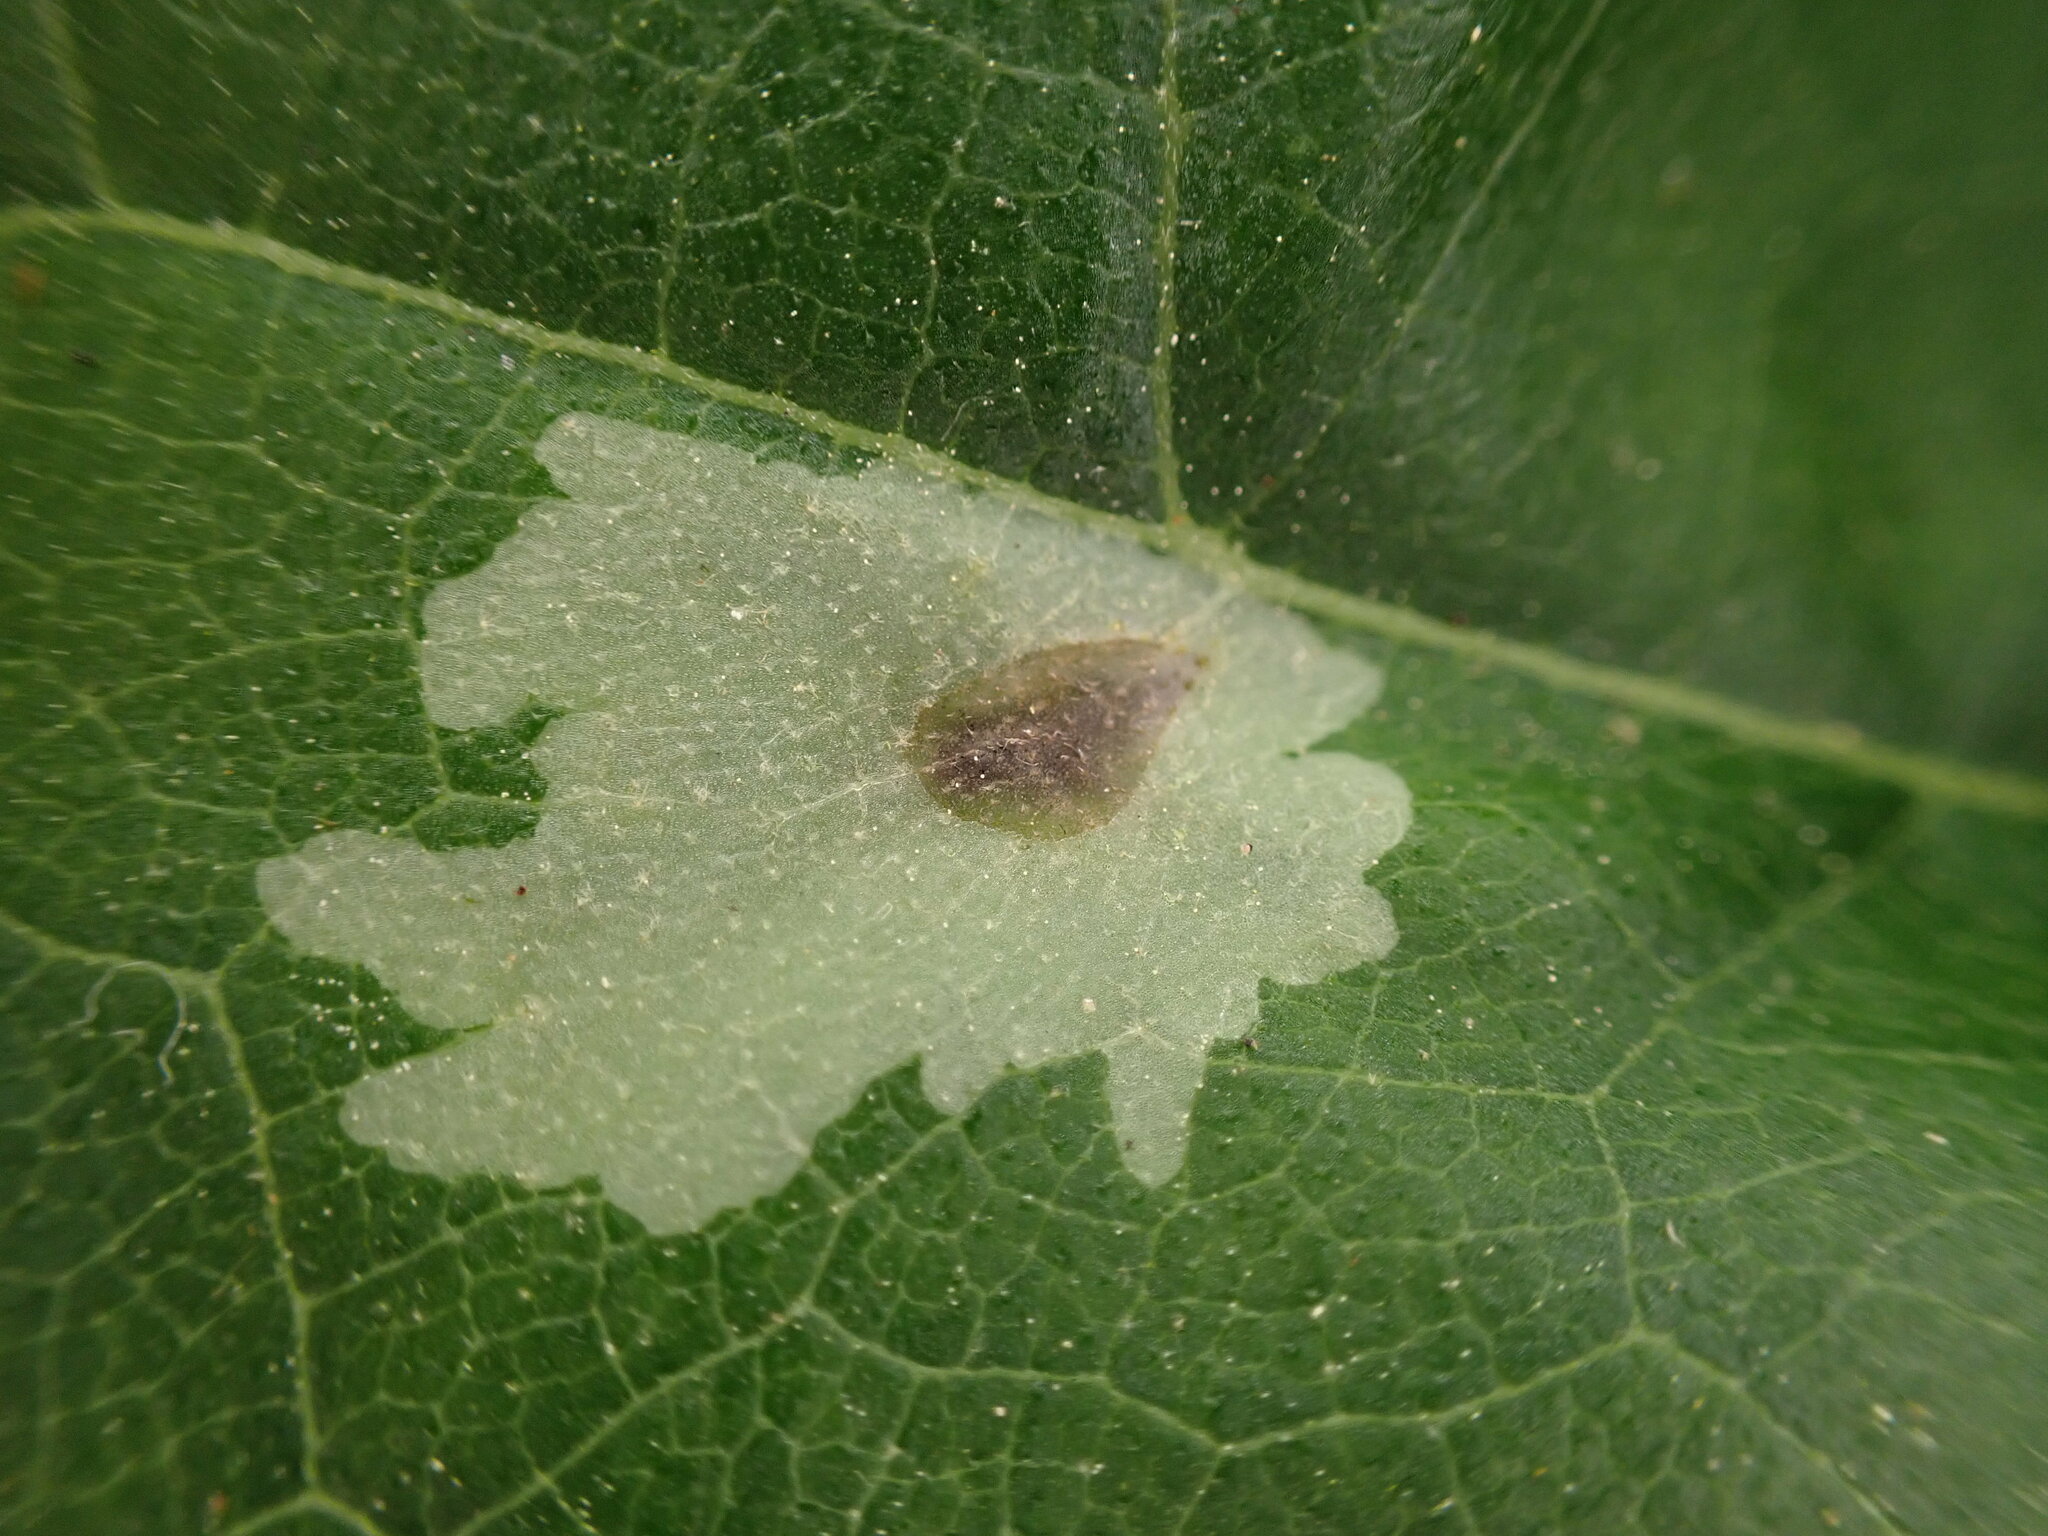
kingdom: Animalia
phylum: Arthropoda
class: Insecta
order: Diptera
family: Agromyzidae
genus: Calycomyza
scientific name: Calycomyza platyptera
